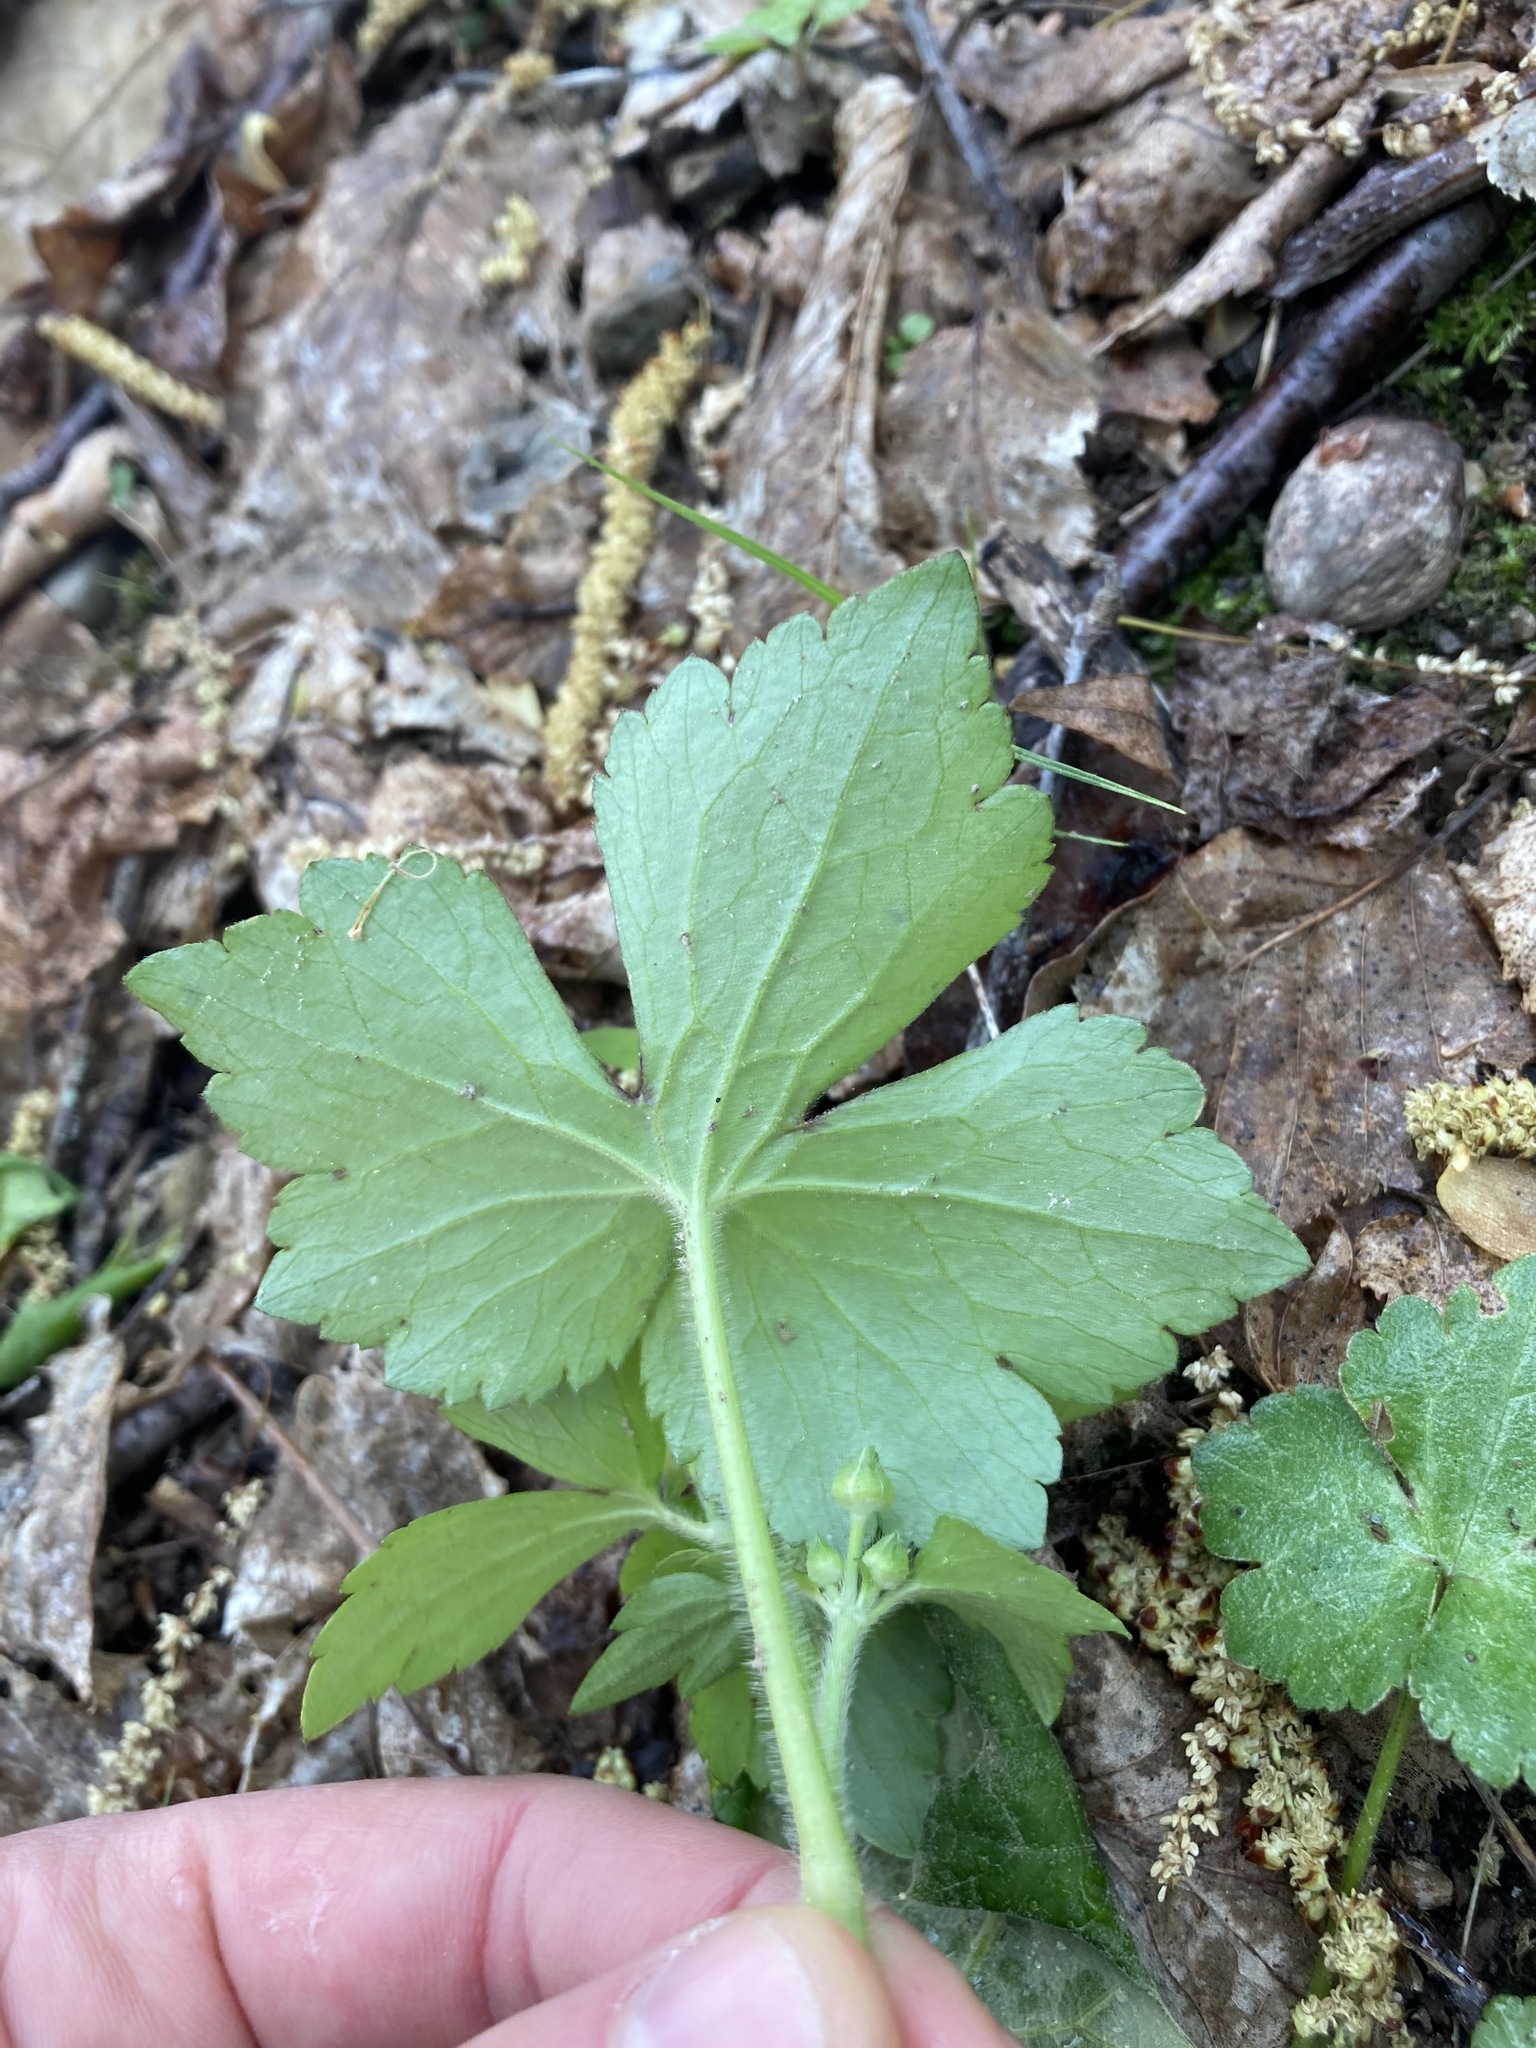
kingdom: Plantae
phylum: Tracheophyta
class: Magnoliopsida
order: Ranunculales
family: Ranunculaceae
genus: Ranunculus
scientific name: Ranunculus recurvatus
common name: Blisterwort
